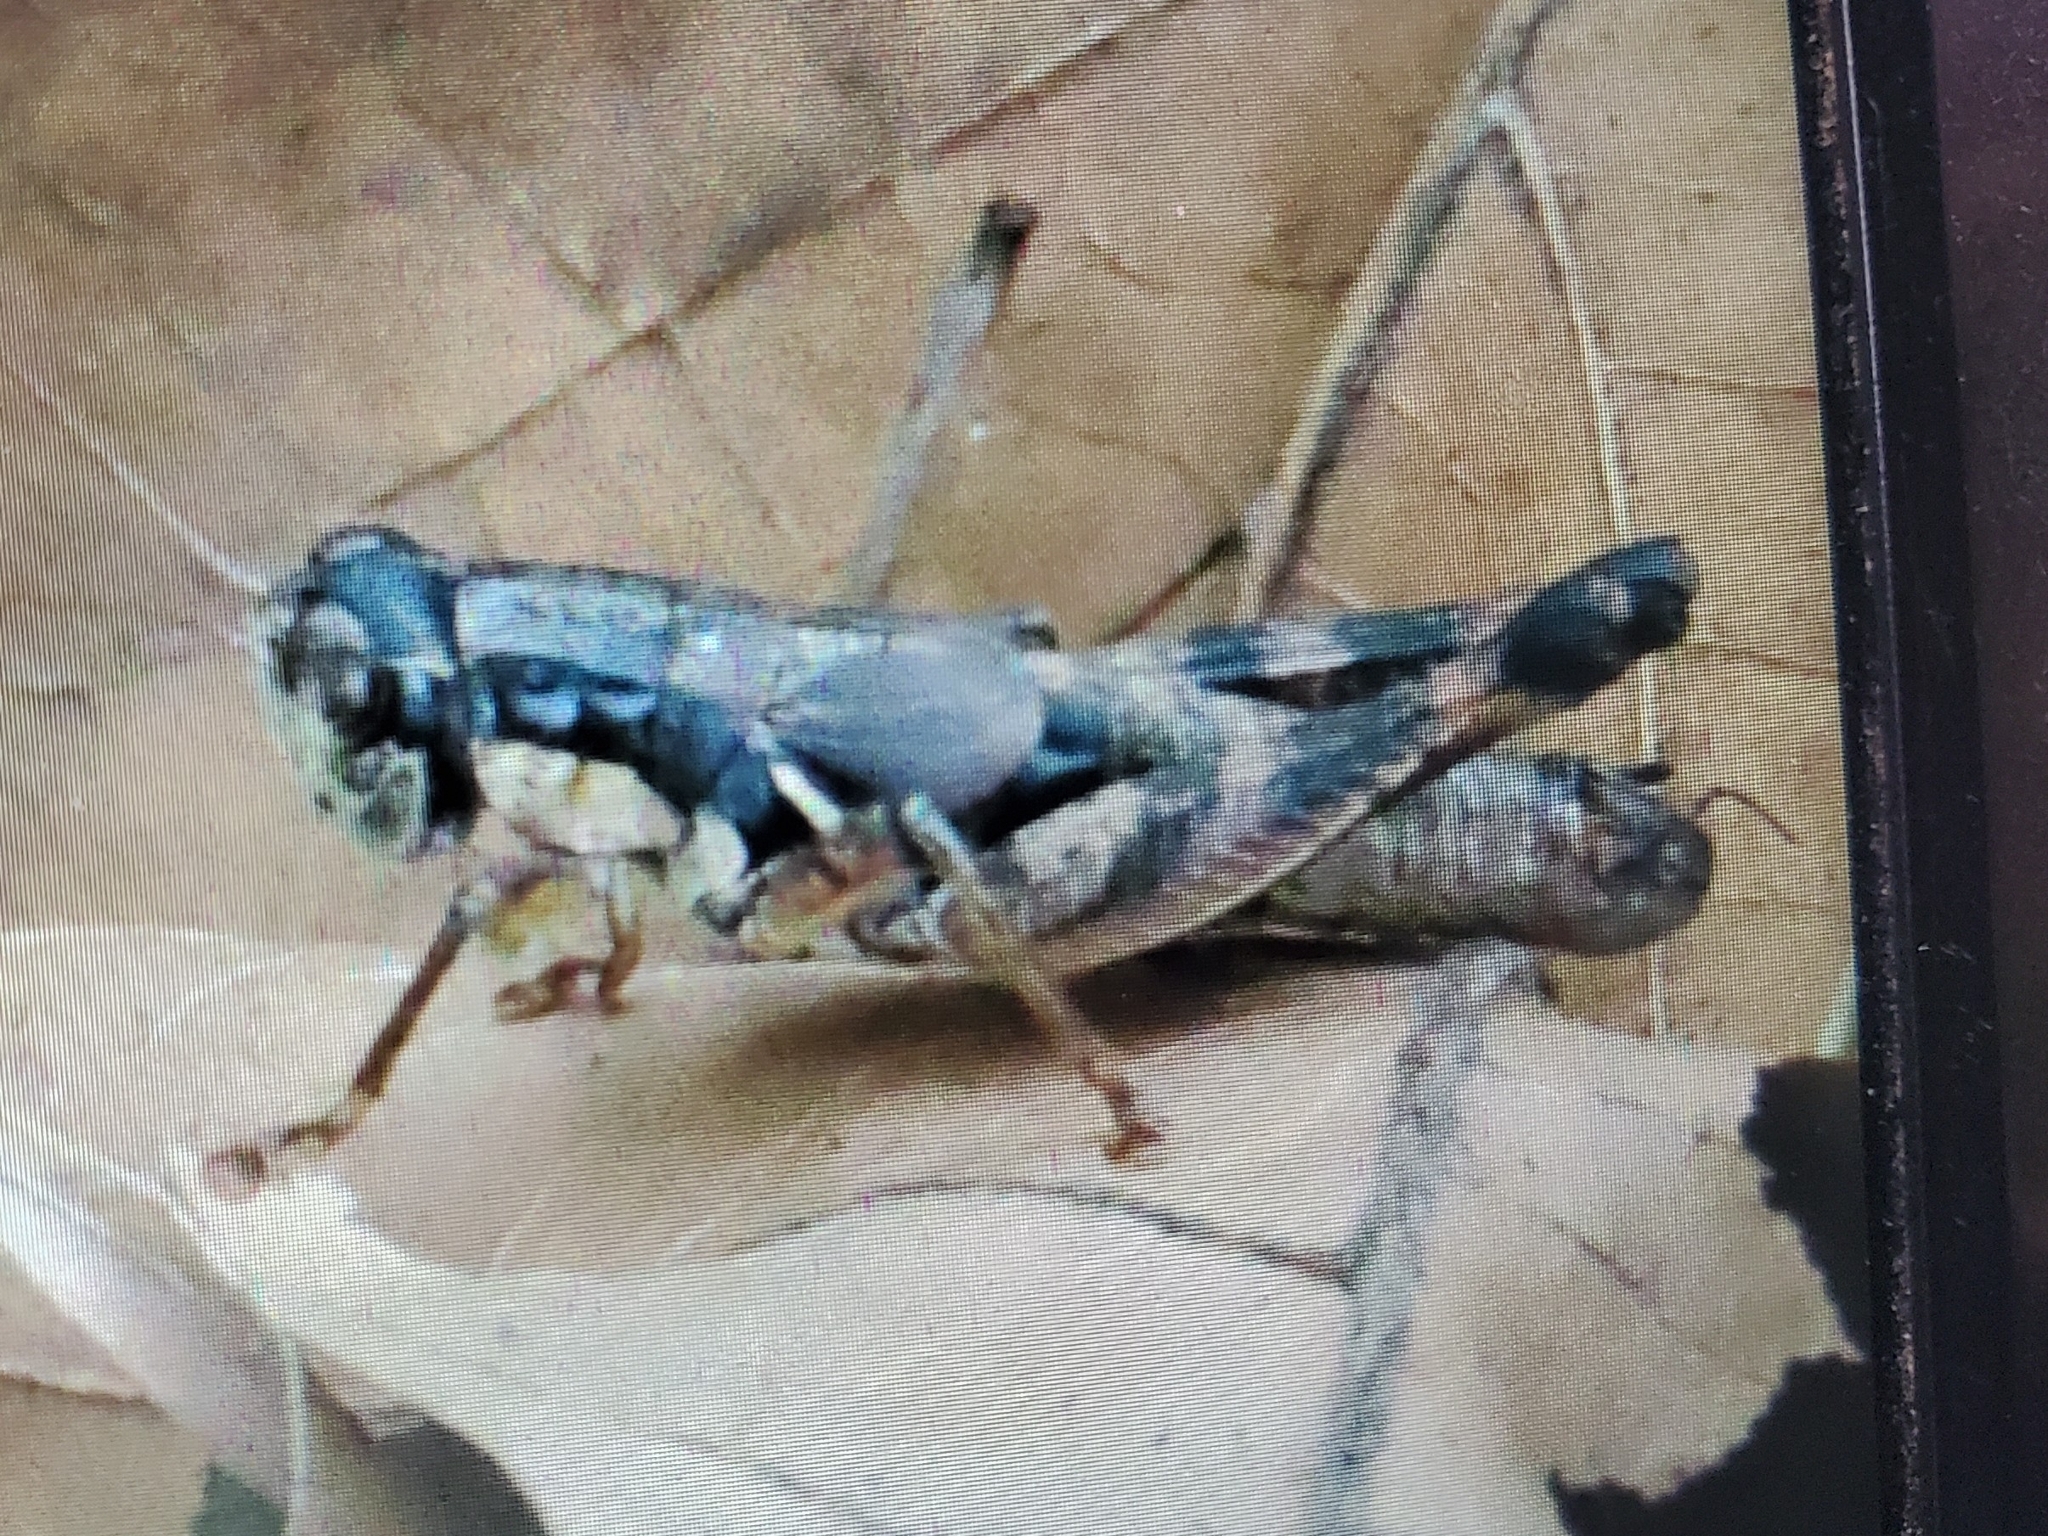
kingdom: Animalia
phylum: Arthropoda
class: Insecta
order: Orthoptera
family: Acrididae
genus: Melanoplus
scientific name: Melanoplus rusticus
